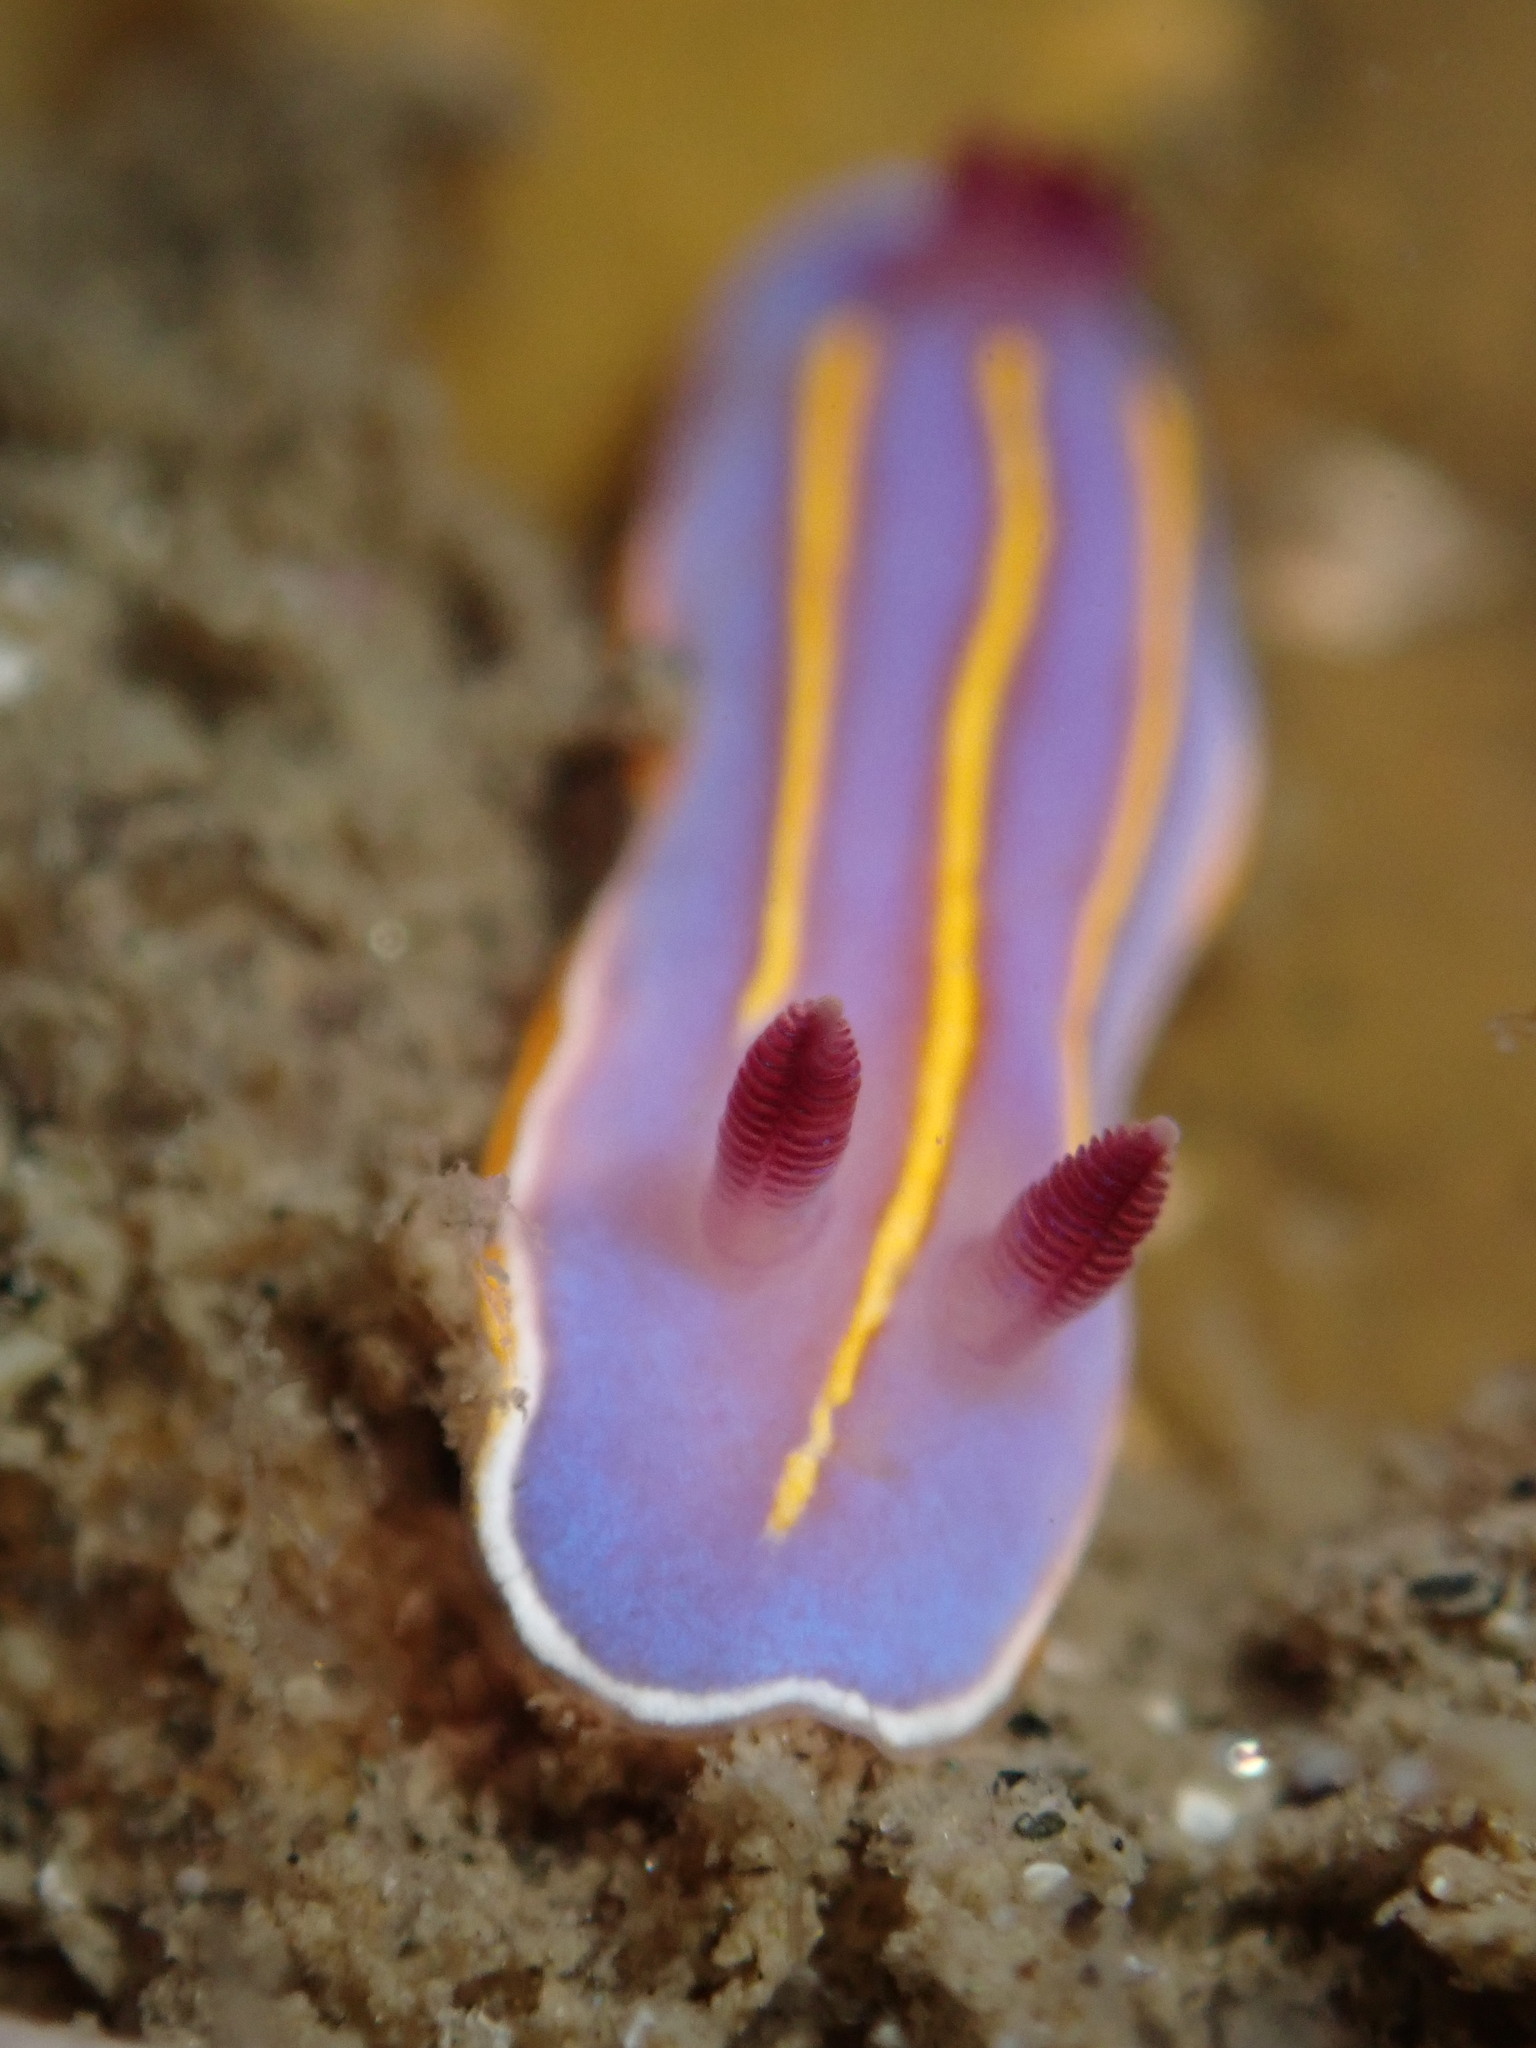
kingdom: Animalia
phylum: Mollusca
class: Gastropoda
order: Nudibranchia
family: Chromodorididae
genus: Felimida
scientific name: Felimida macfarlandi
